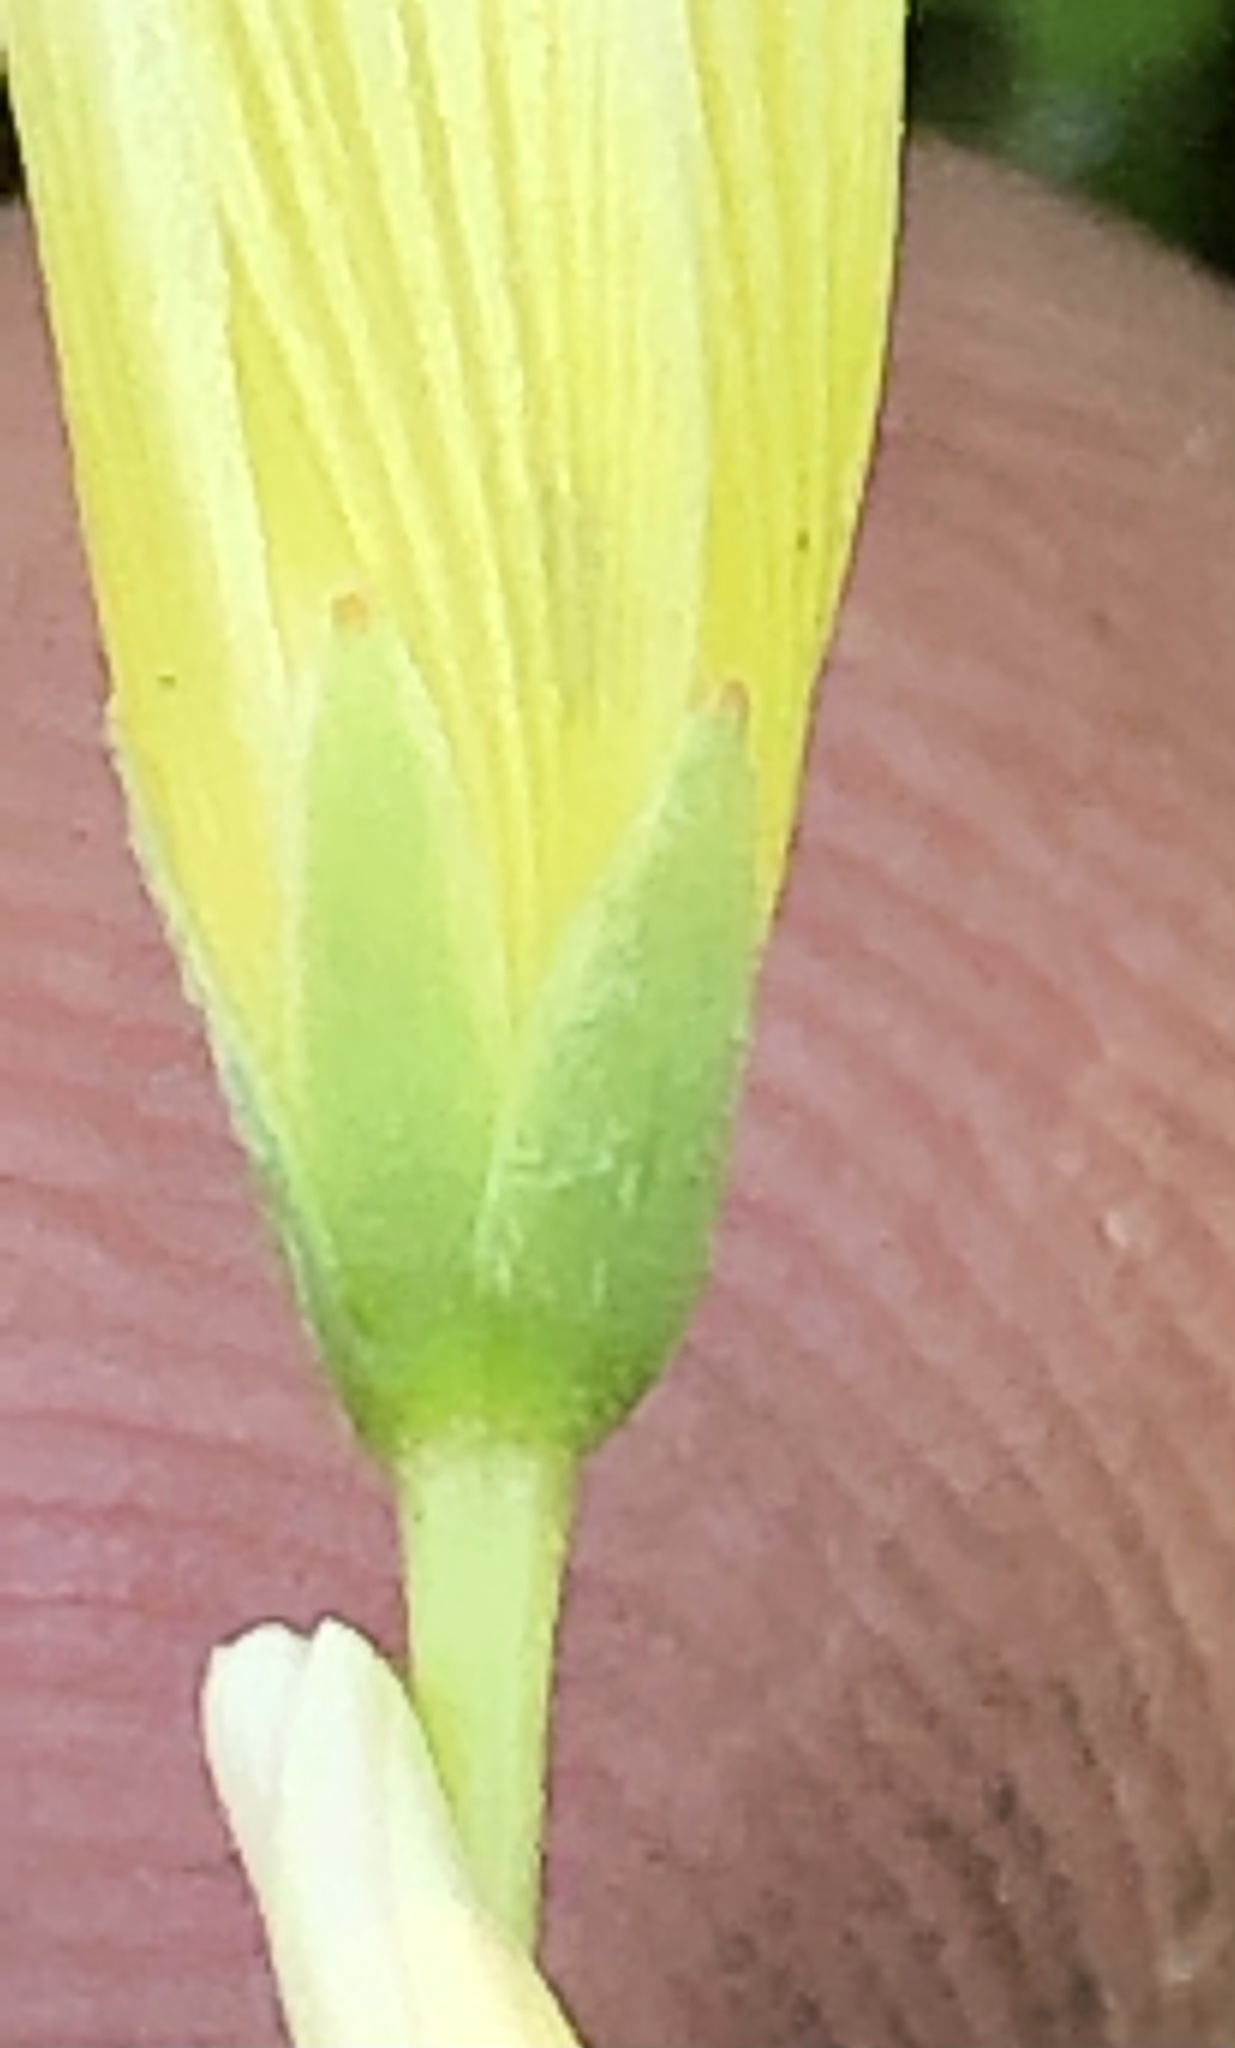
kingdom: Plantae
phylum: Tracheophyta
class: Magnoliopsida
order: Oxalidales
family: Oxalidaceae
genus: Oxalis
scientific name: Oxalis caprina
